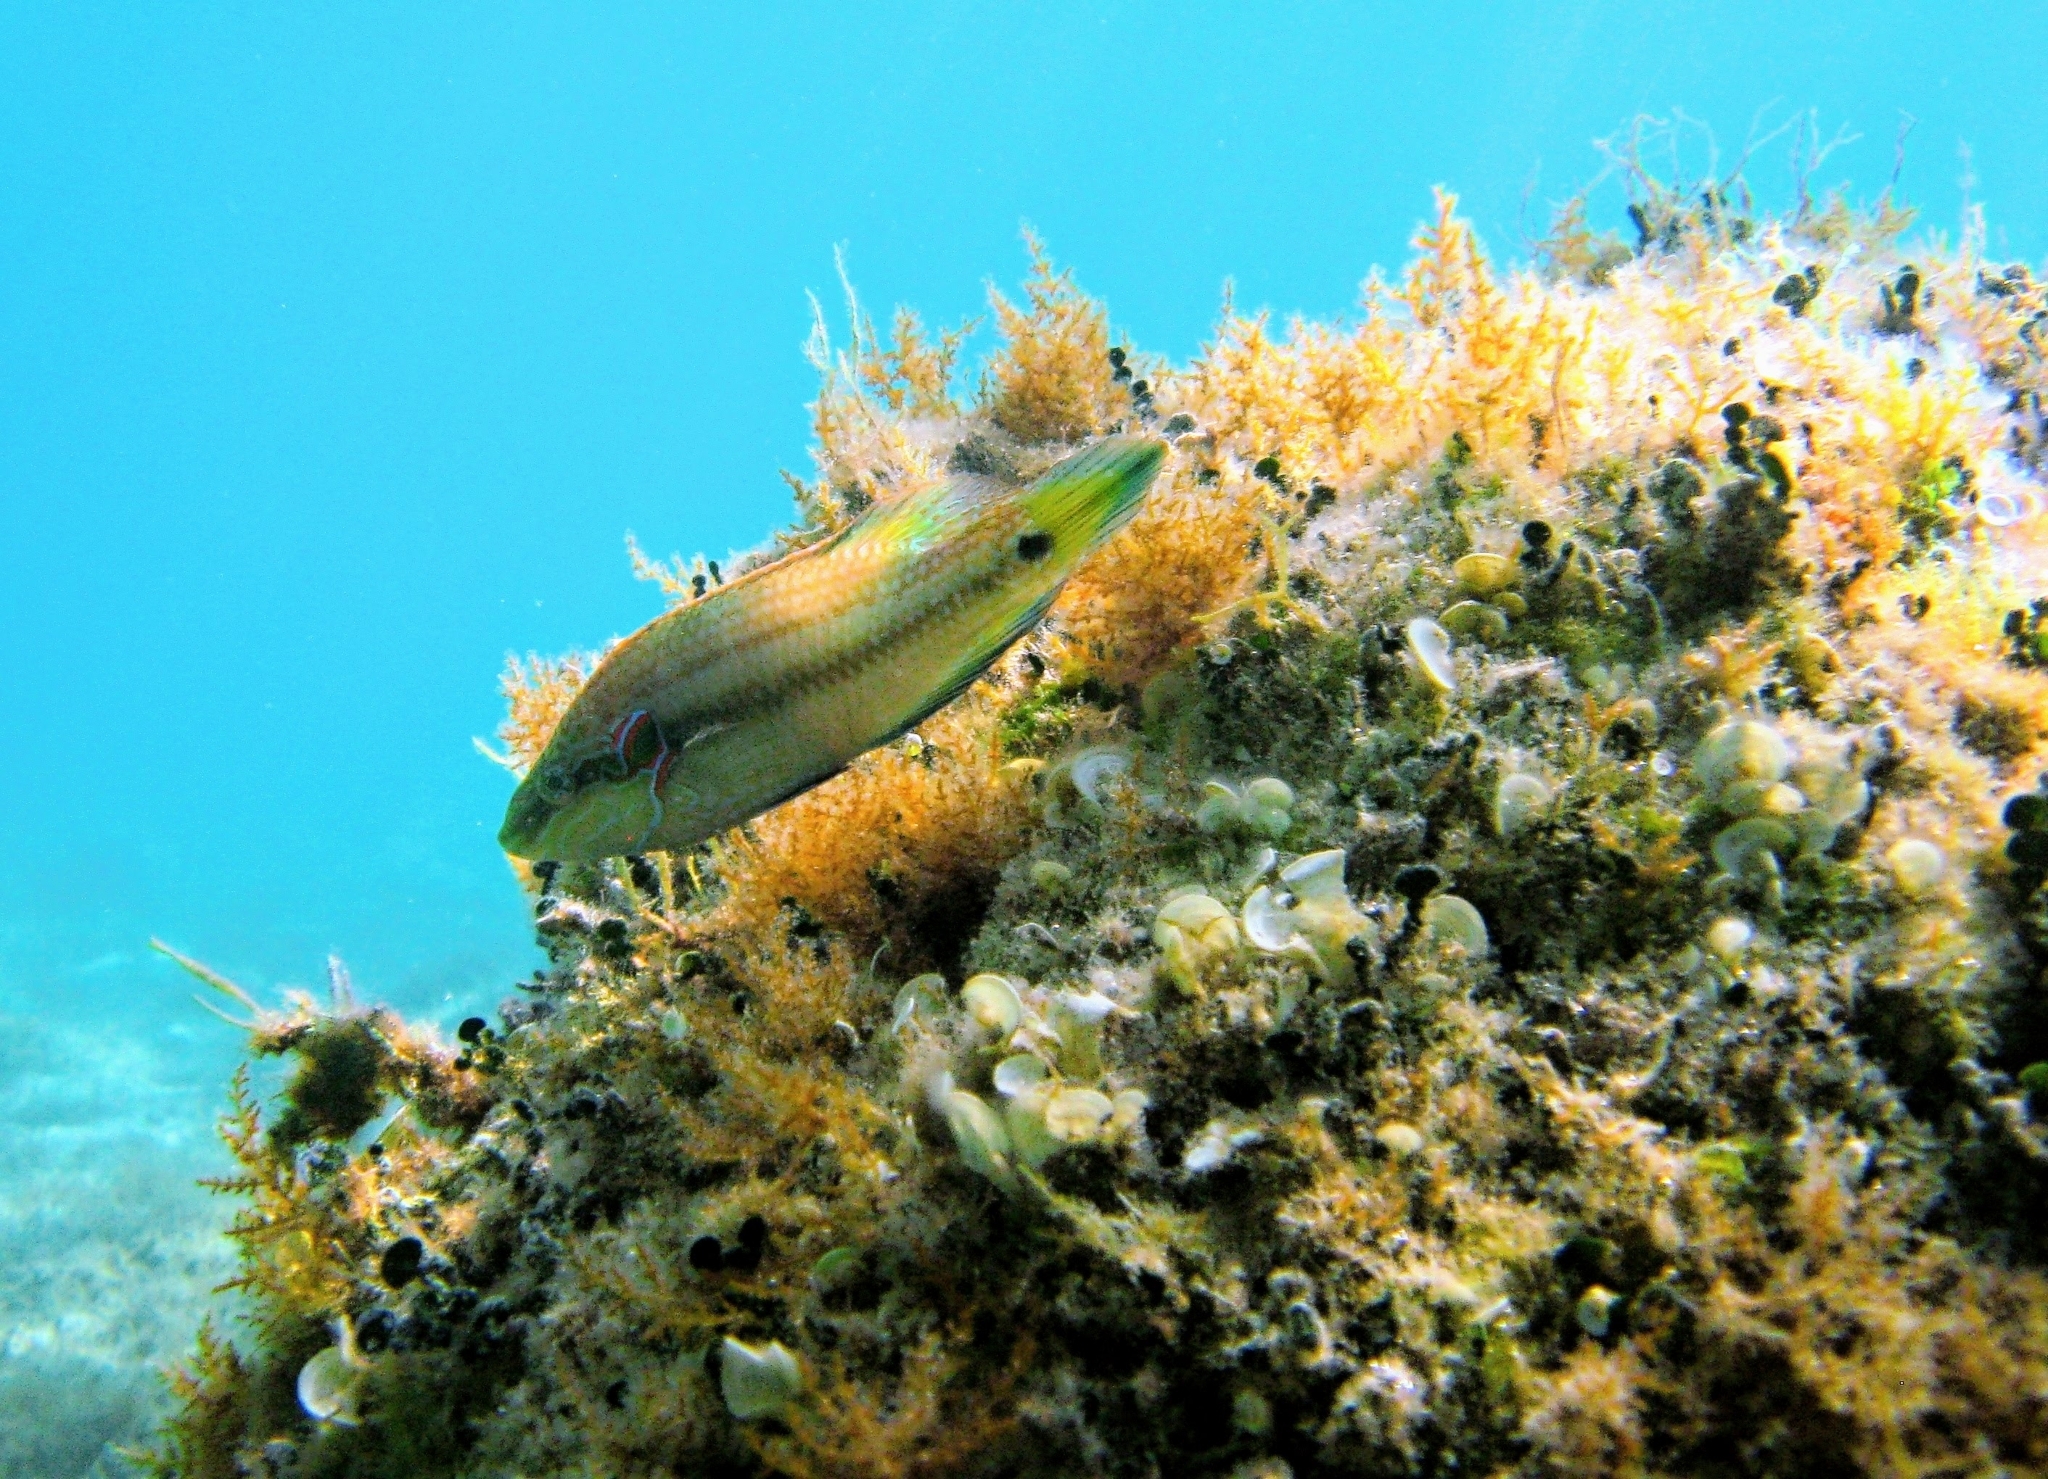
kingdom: Animalia
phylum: Chordata
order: Perciformes
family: Labridae
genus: Symphodus
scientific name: Symphodus ocellatus
